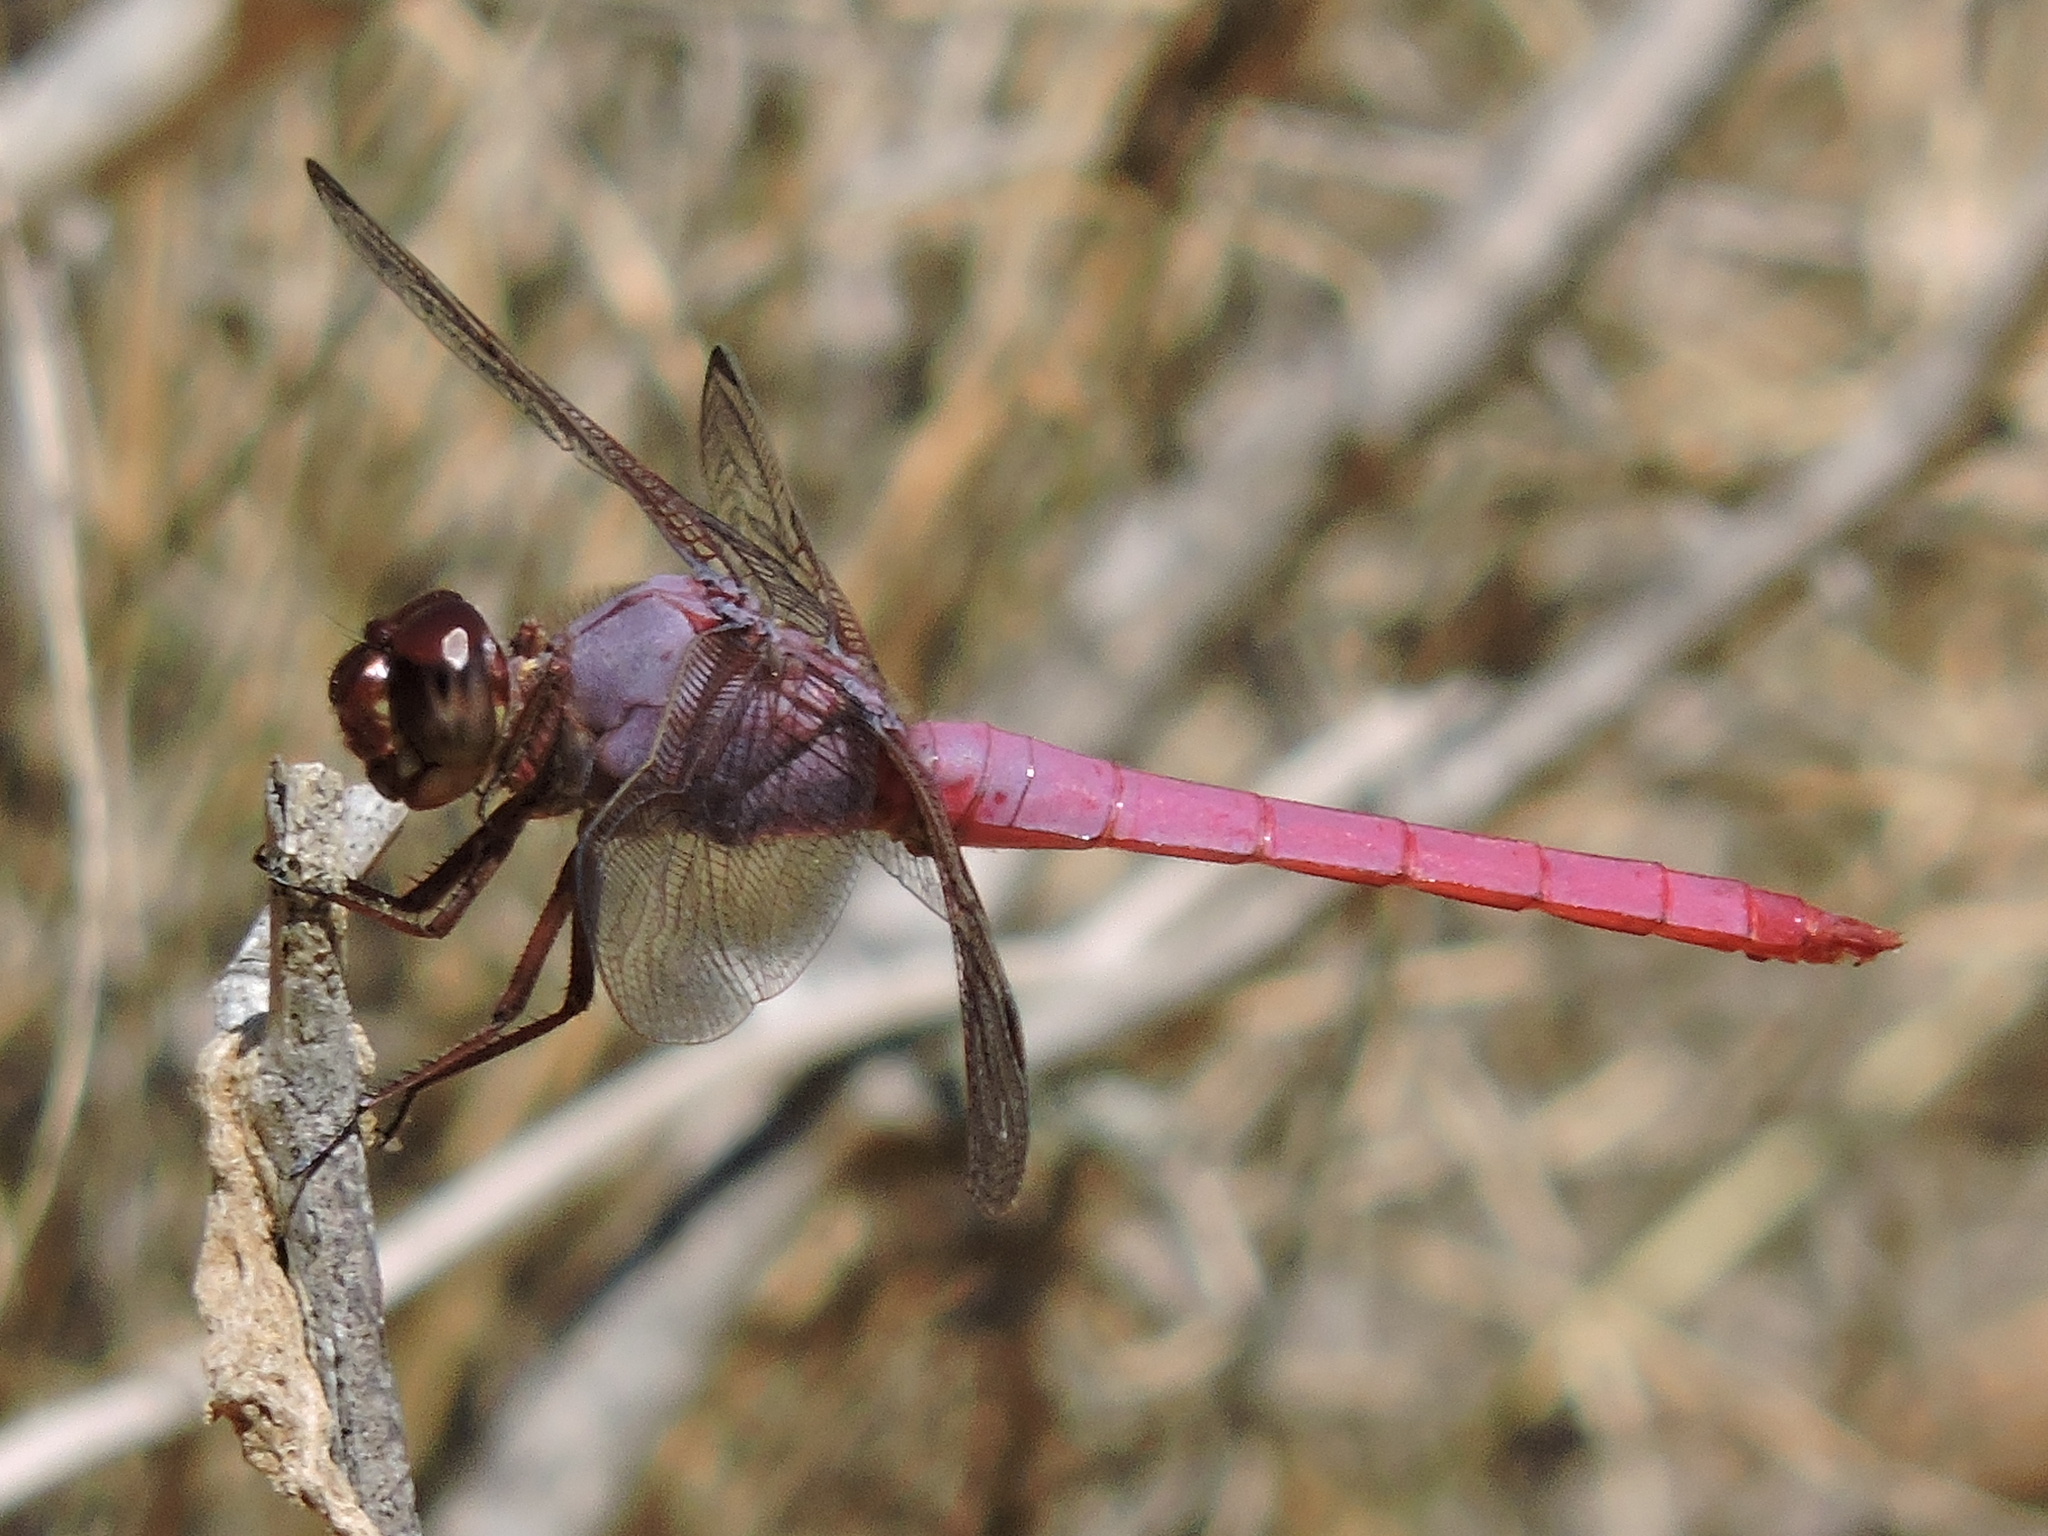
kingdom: Animalia
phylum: Arthropoda
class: Insecta
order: Odonata
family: Libellulidae
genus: Orthemis
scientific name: Orthemis ferruginea
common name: Roseate skimmer
